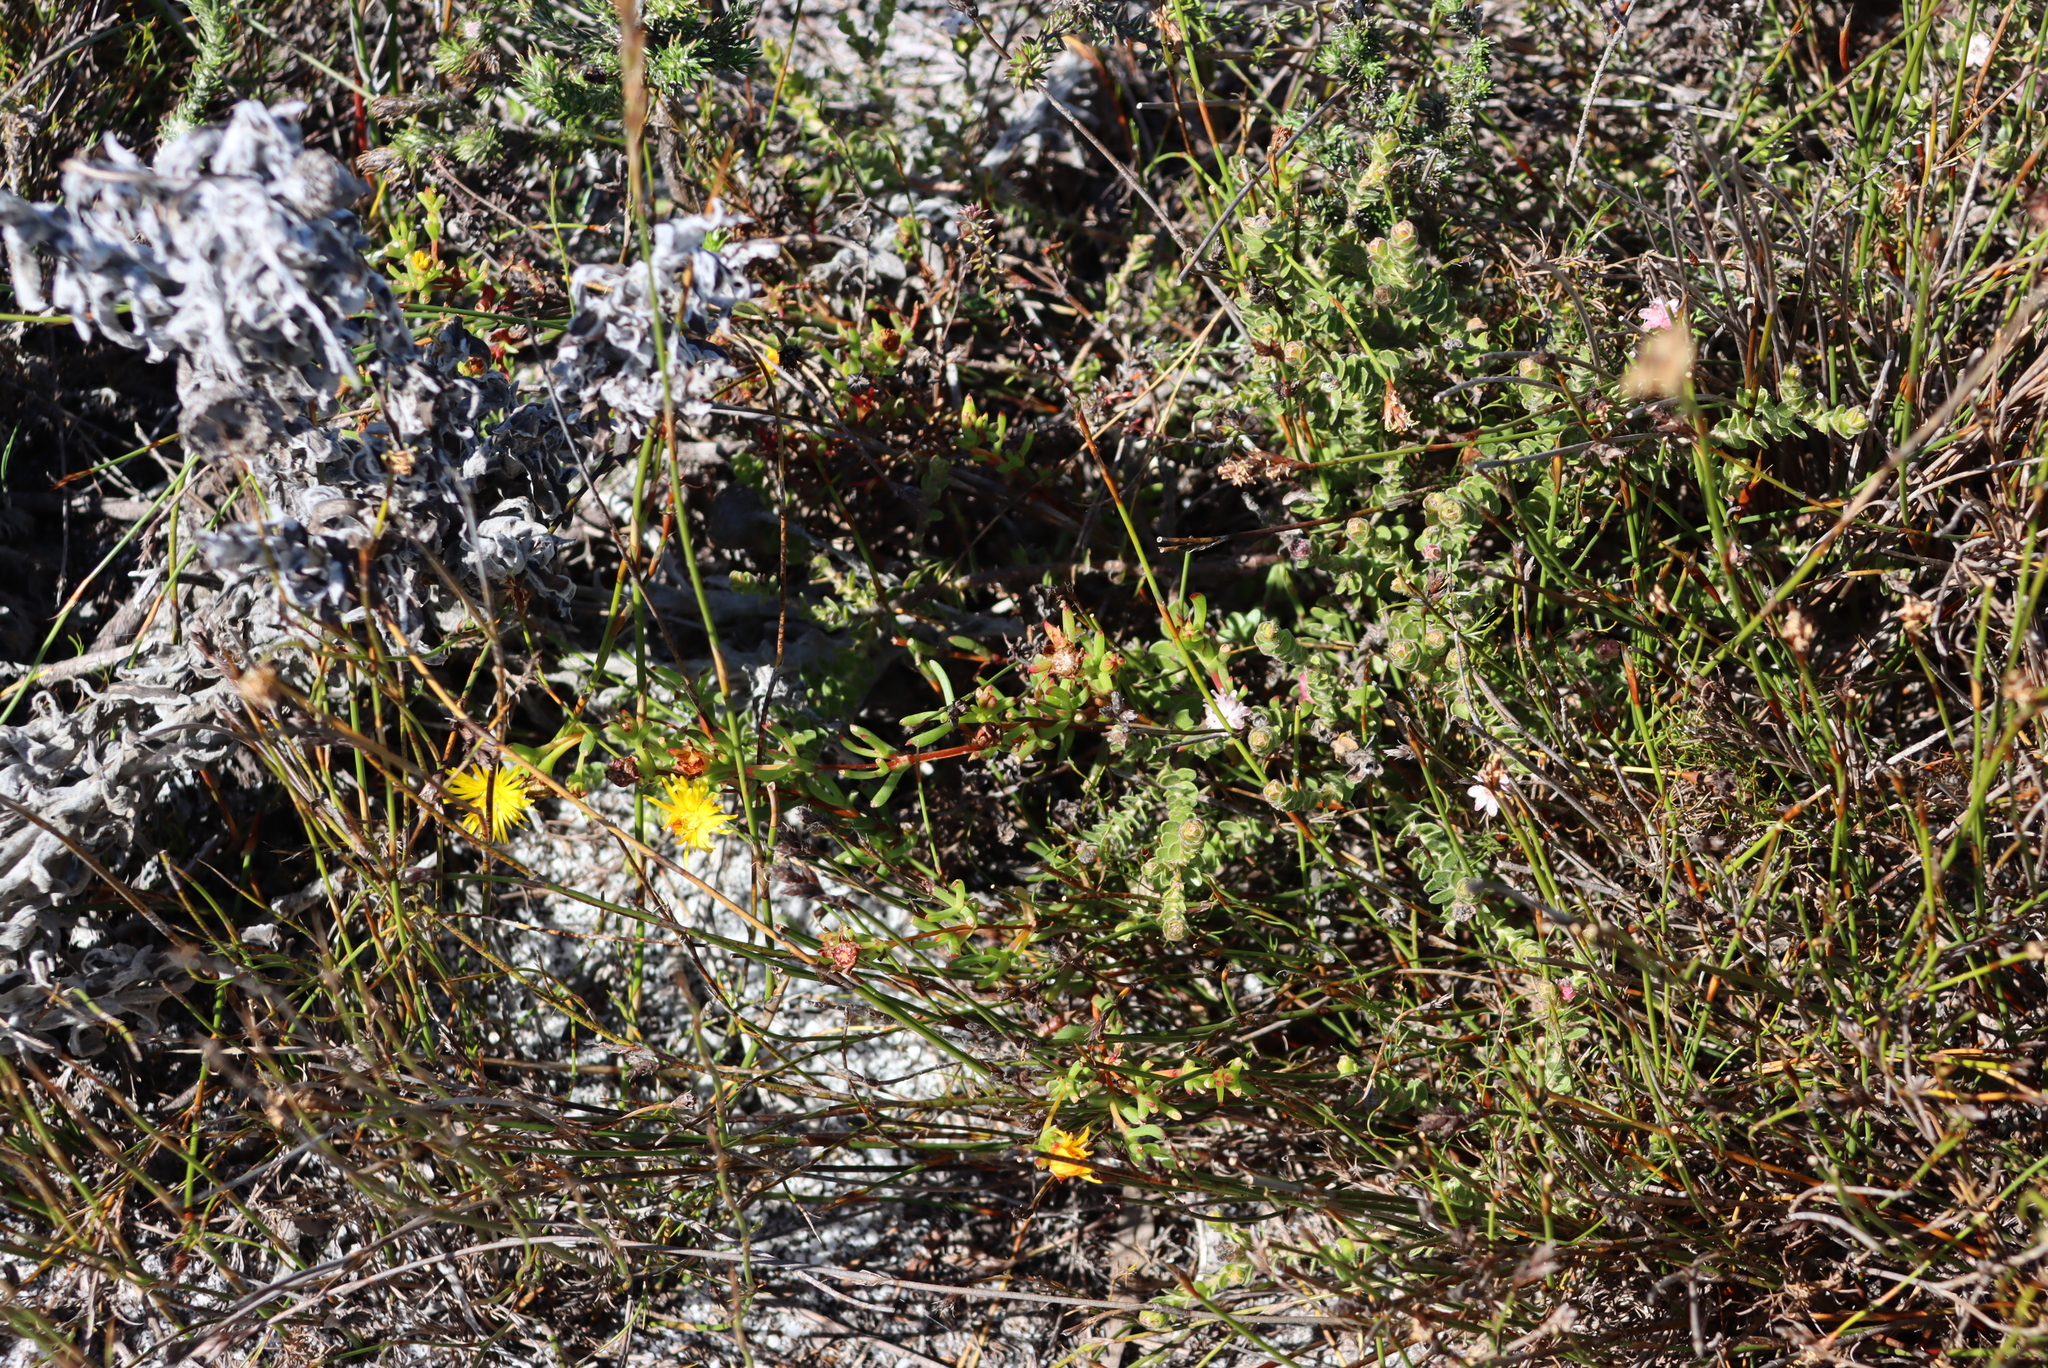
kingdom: Plantae
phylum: Tracheophyta
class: Magnoliopsida
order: Caryophyllales
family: Aizoaceae
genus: Lampranthus
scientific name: Lampranthus promontorii
